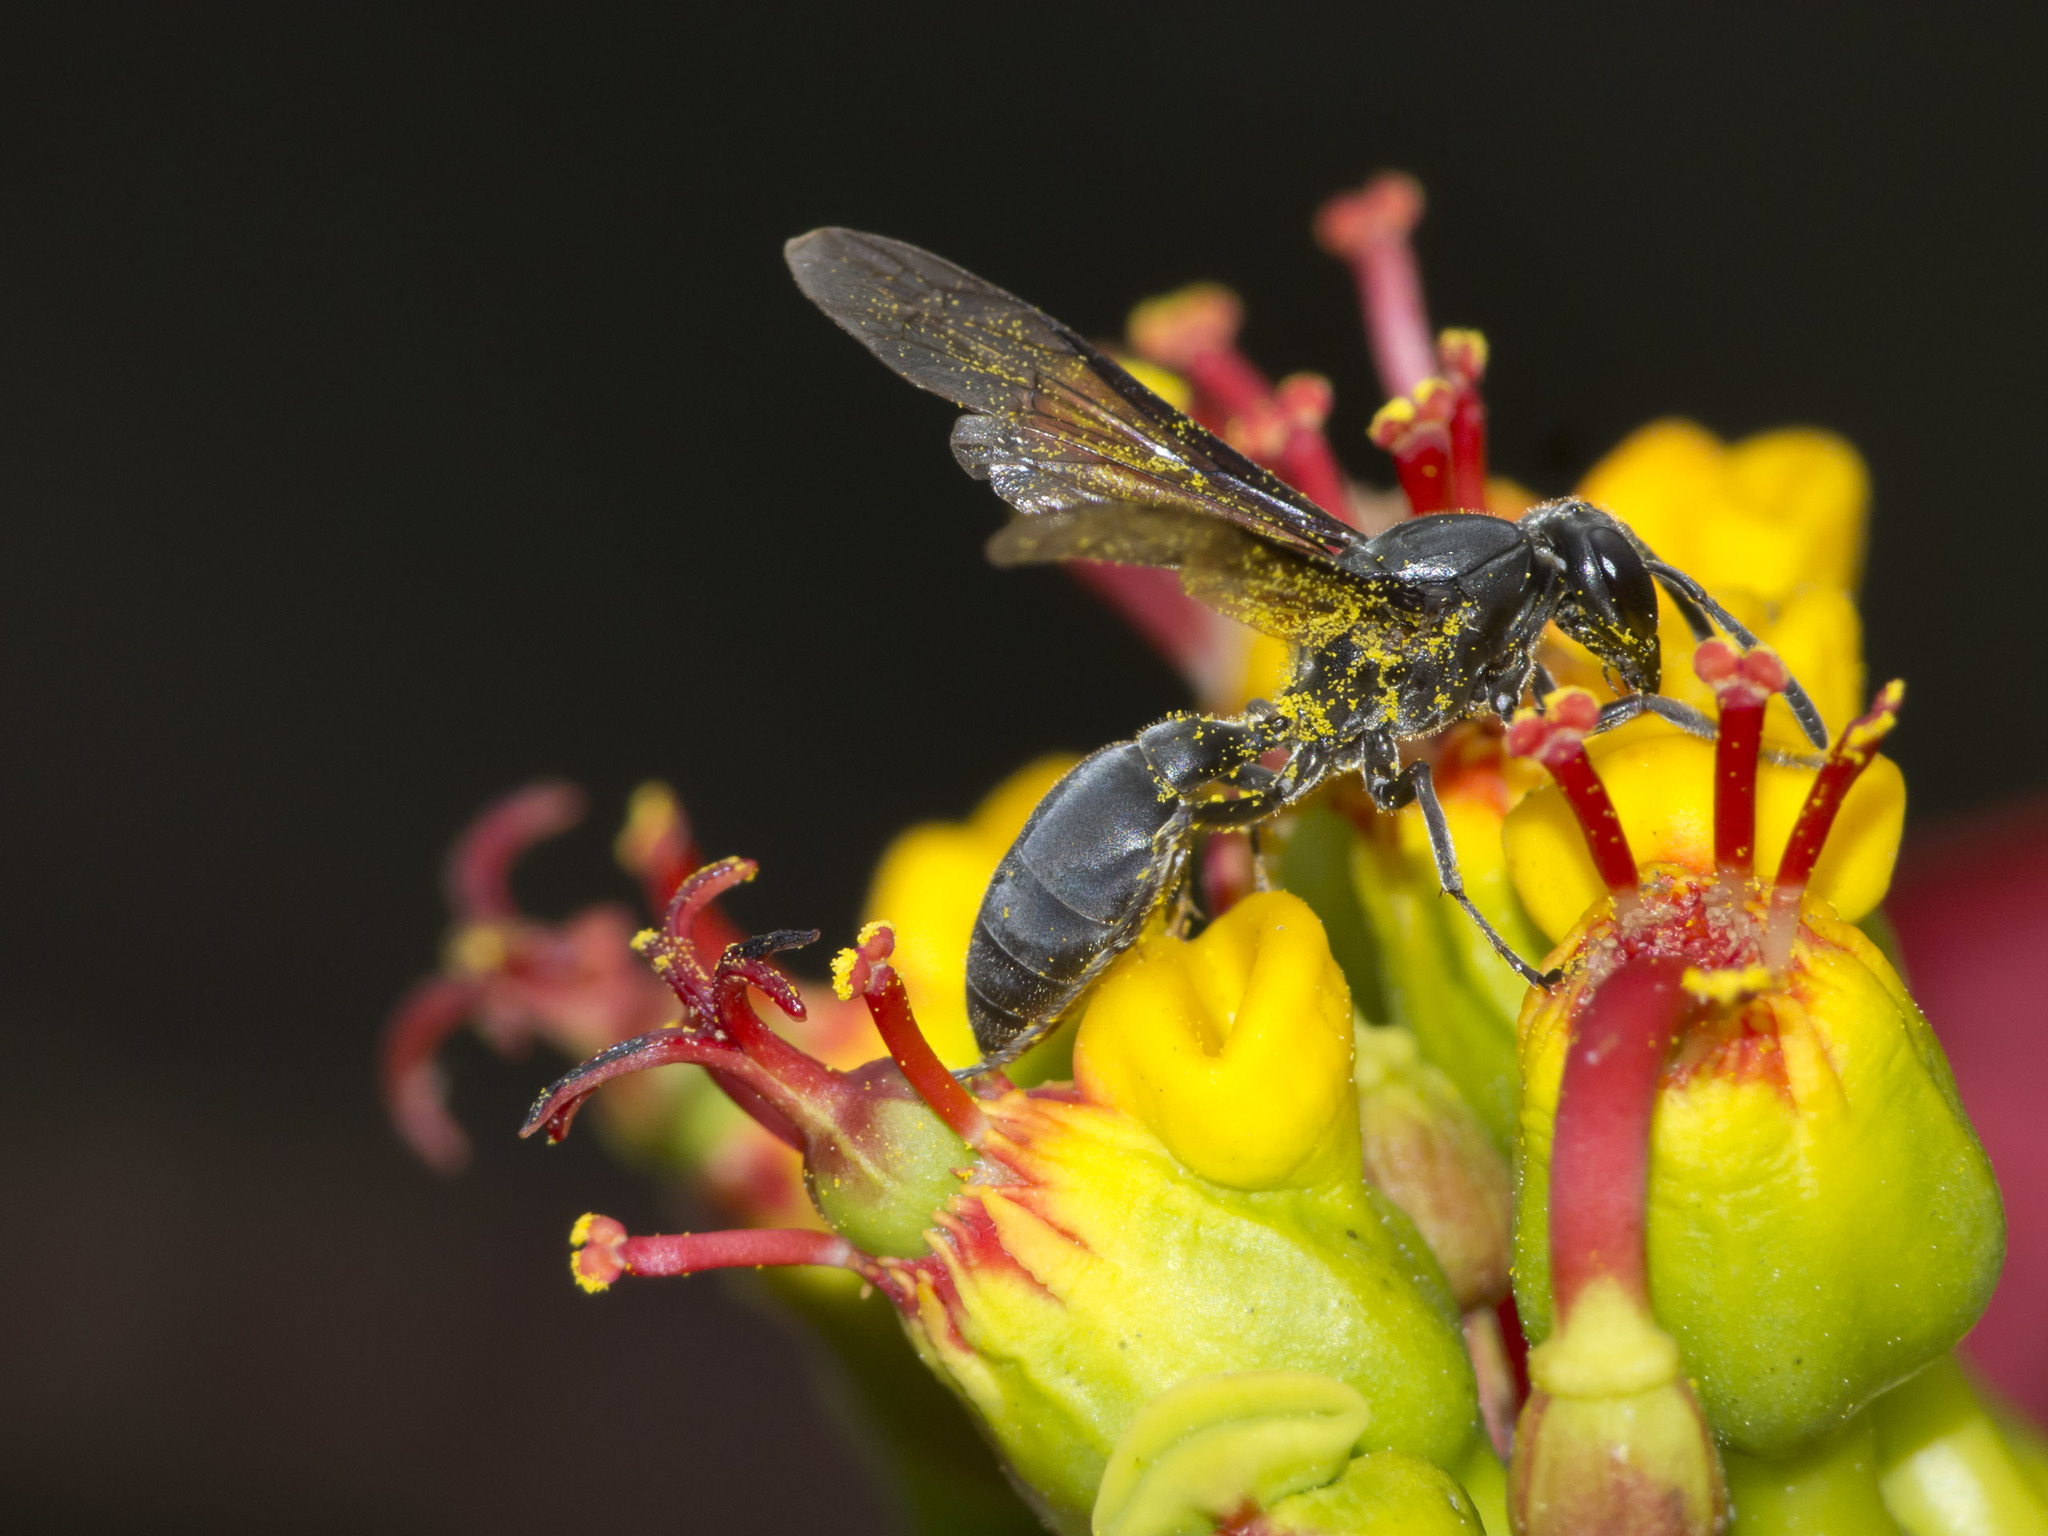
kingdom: Animalia
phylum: Arthropoda
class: Insecta
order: Hymenoptera
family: Eumenidae
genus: Polybia
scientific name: Polybia ignobilis
